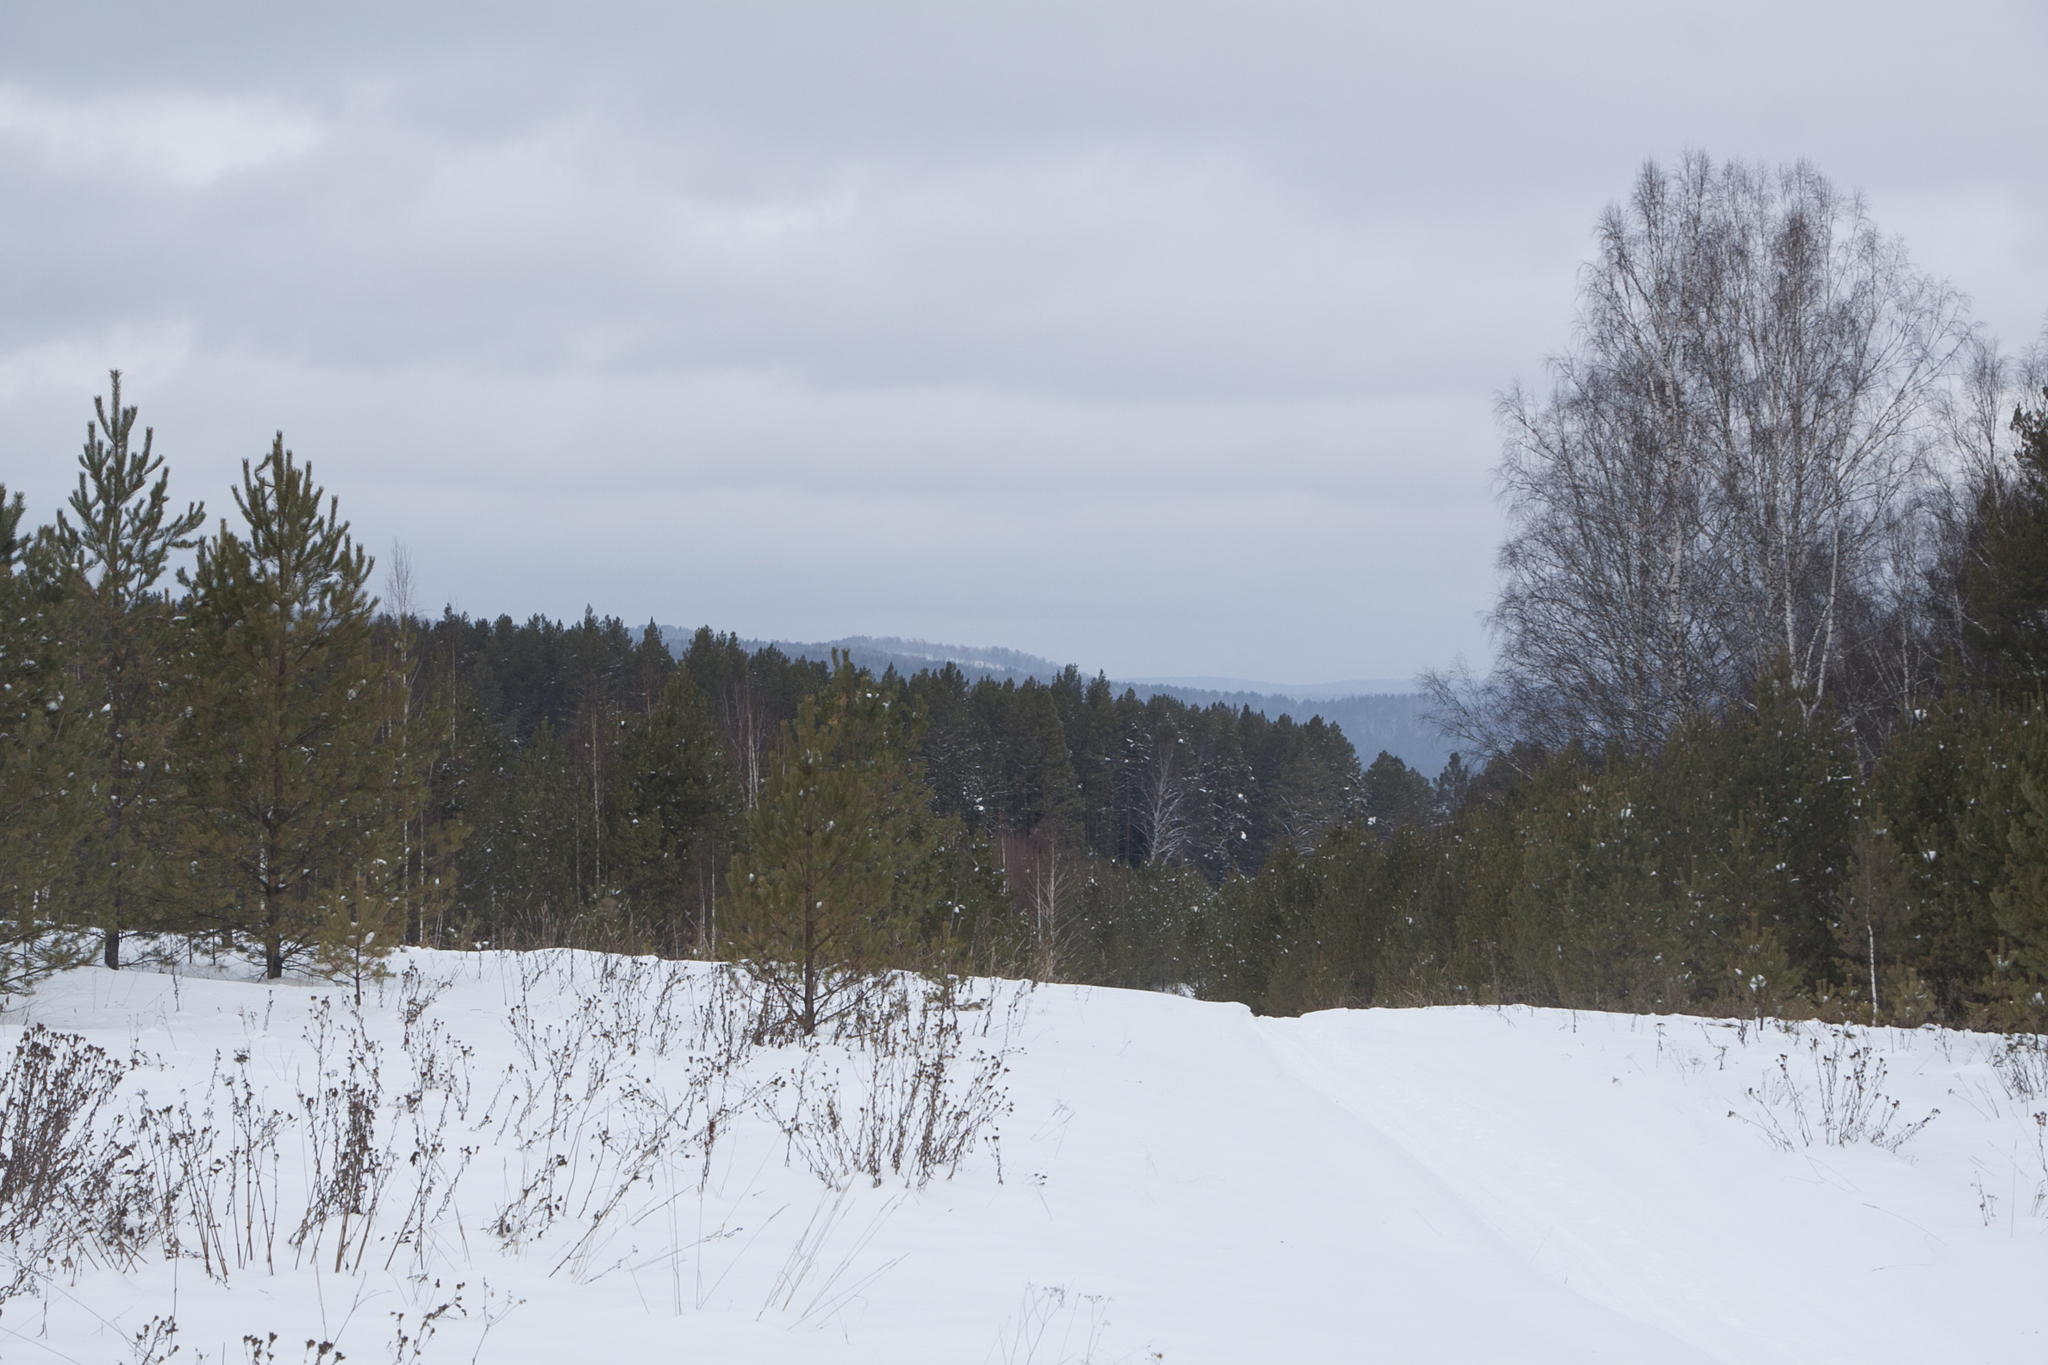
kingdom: Plantae
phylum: Tracheophyta
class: Pinopsida
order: Pinales
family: Pinaceae
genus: Pinus
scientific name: Pinus sylvestris
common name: Scots pine
